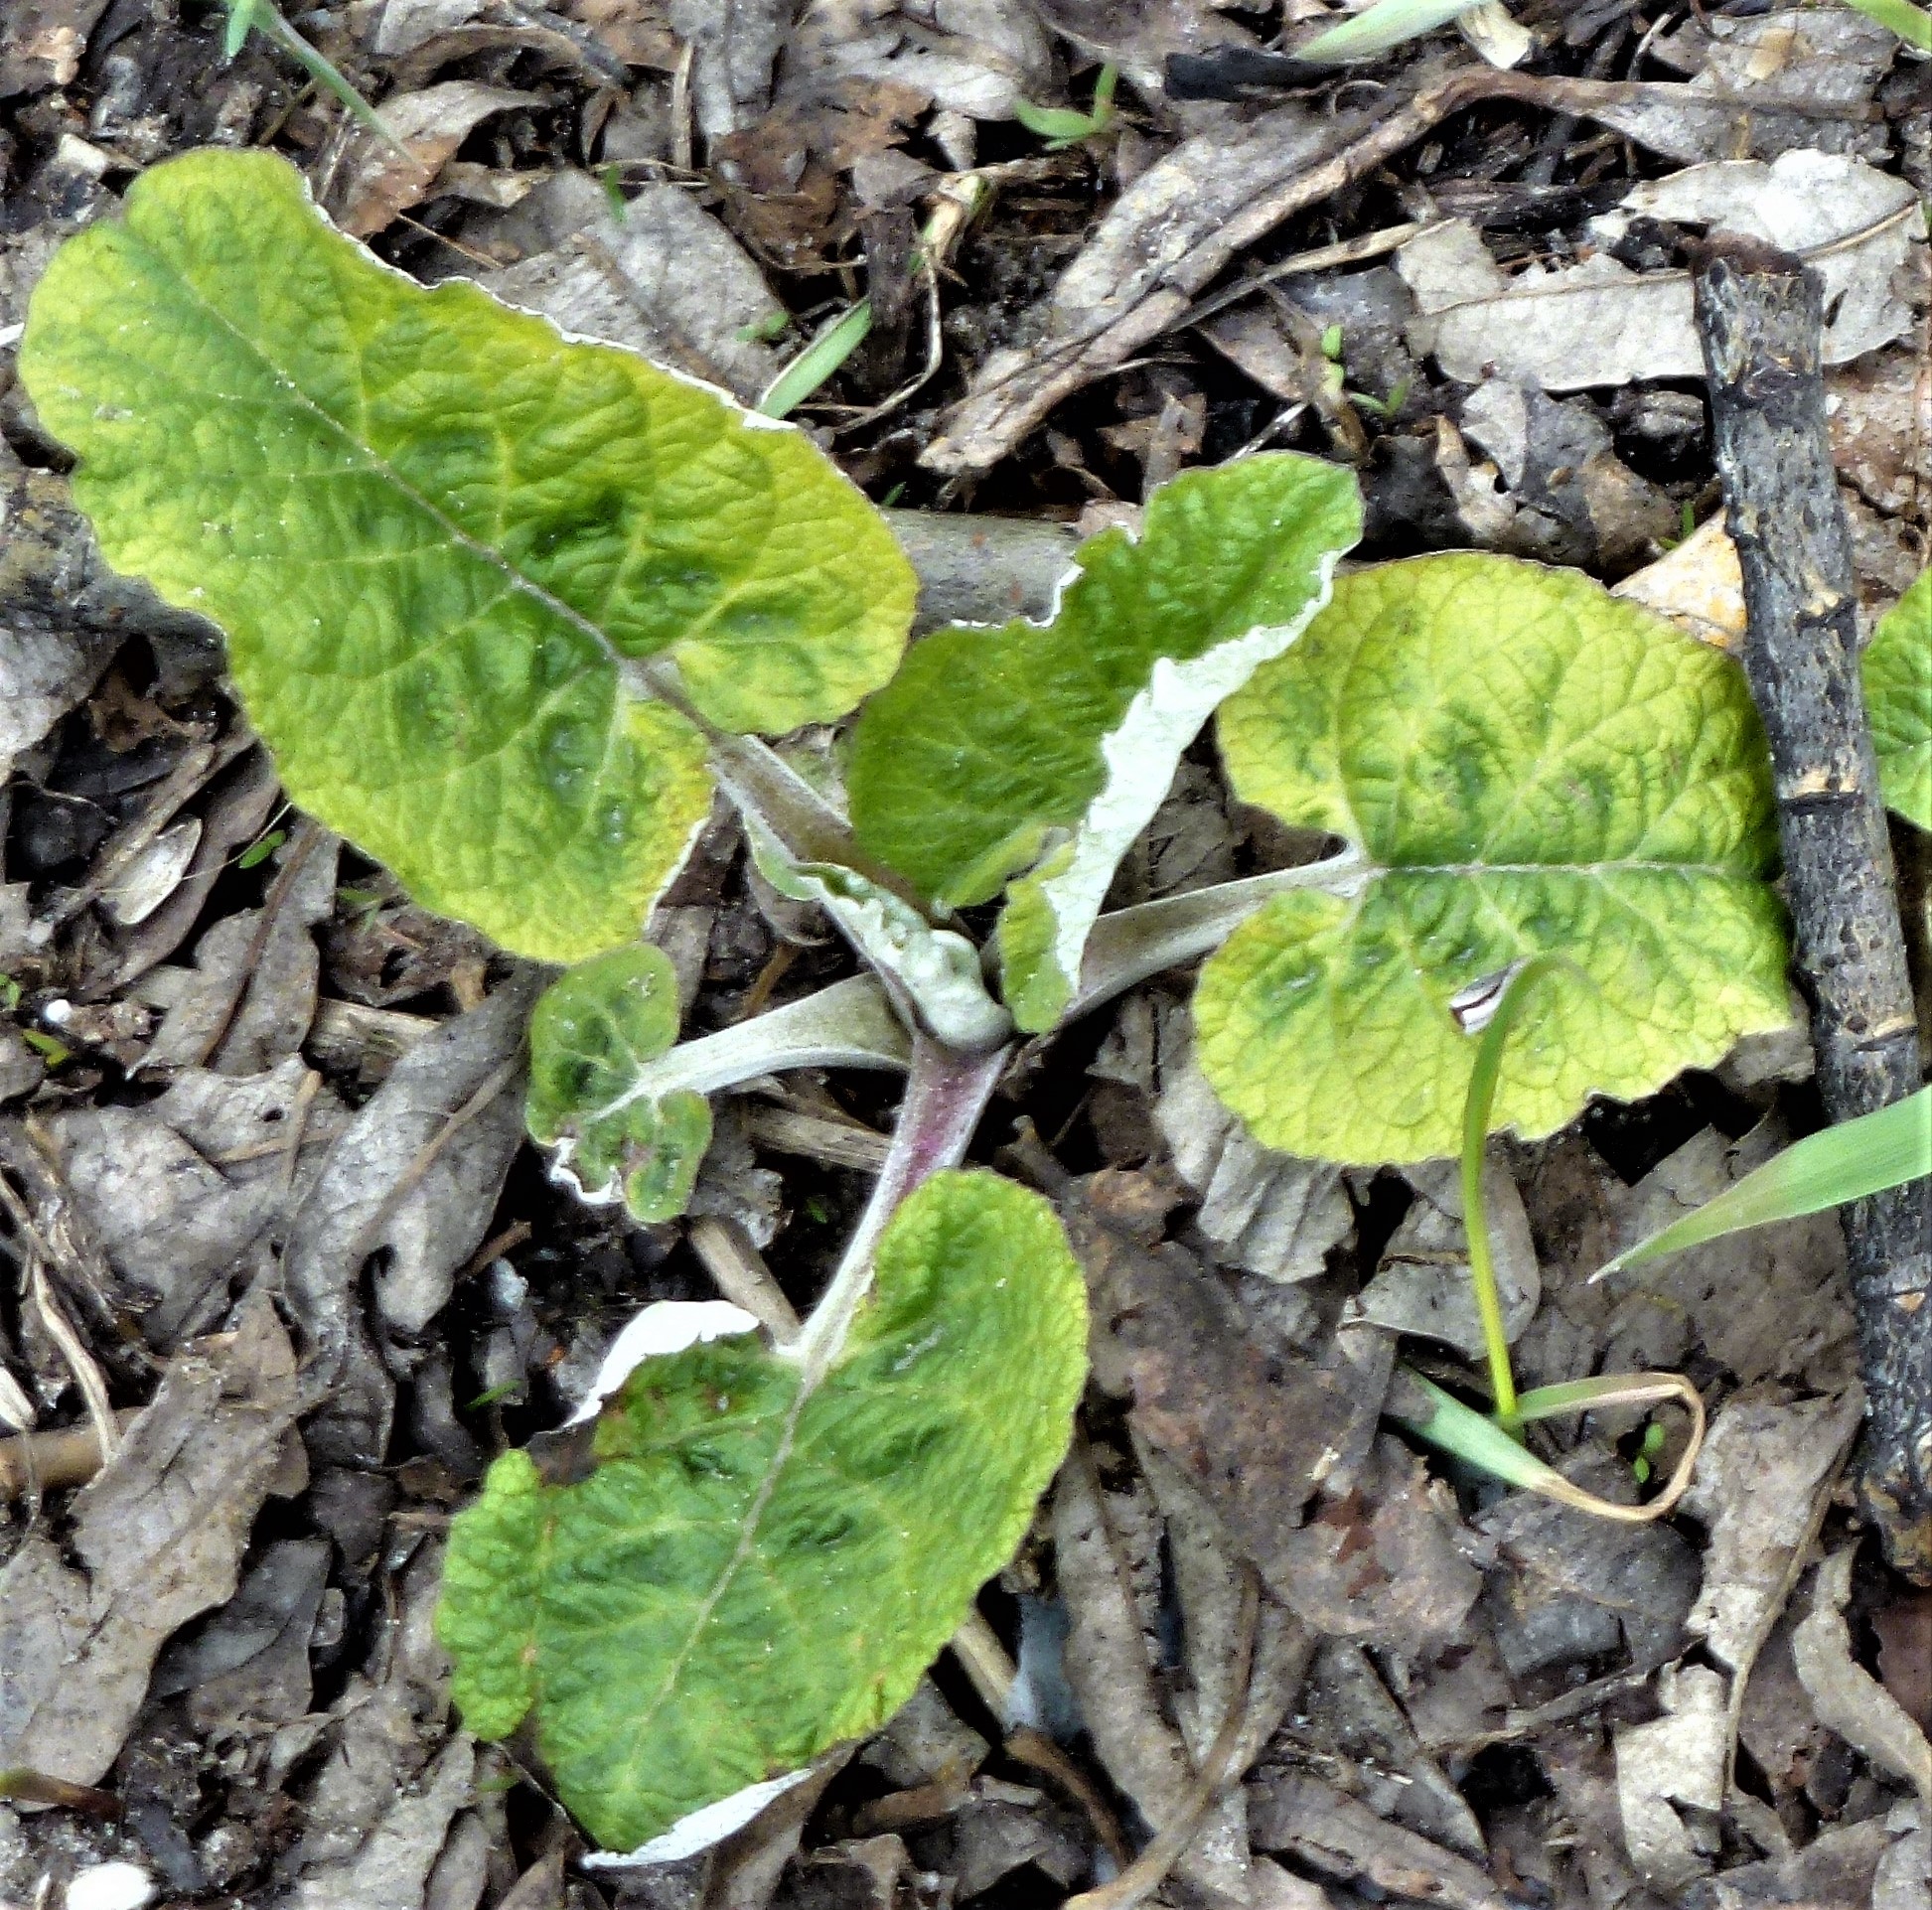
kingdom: Plantae
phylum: Tracheophyta
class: Magnoliopsida
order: Asterales
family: Asteraceae
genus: Arctium
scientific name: Arctium tomentosum
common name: Woolly burdock
